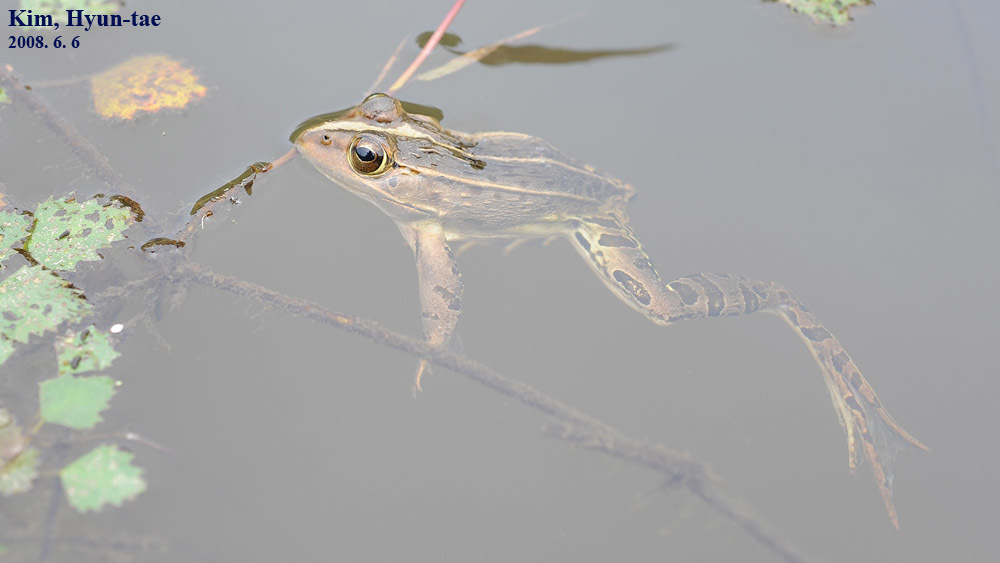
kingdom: Animalia
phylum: Chordata
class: Amphibia
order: Anura
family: Ranidae
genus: Pelophylax
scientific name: Pelophylax nigromaculatus
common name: Black-spotted pond frog
